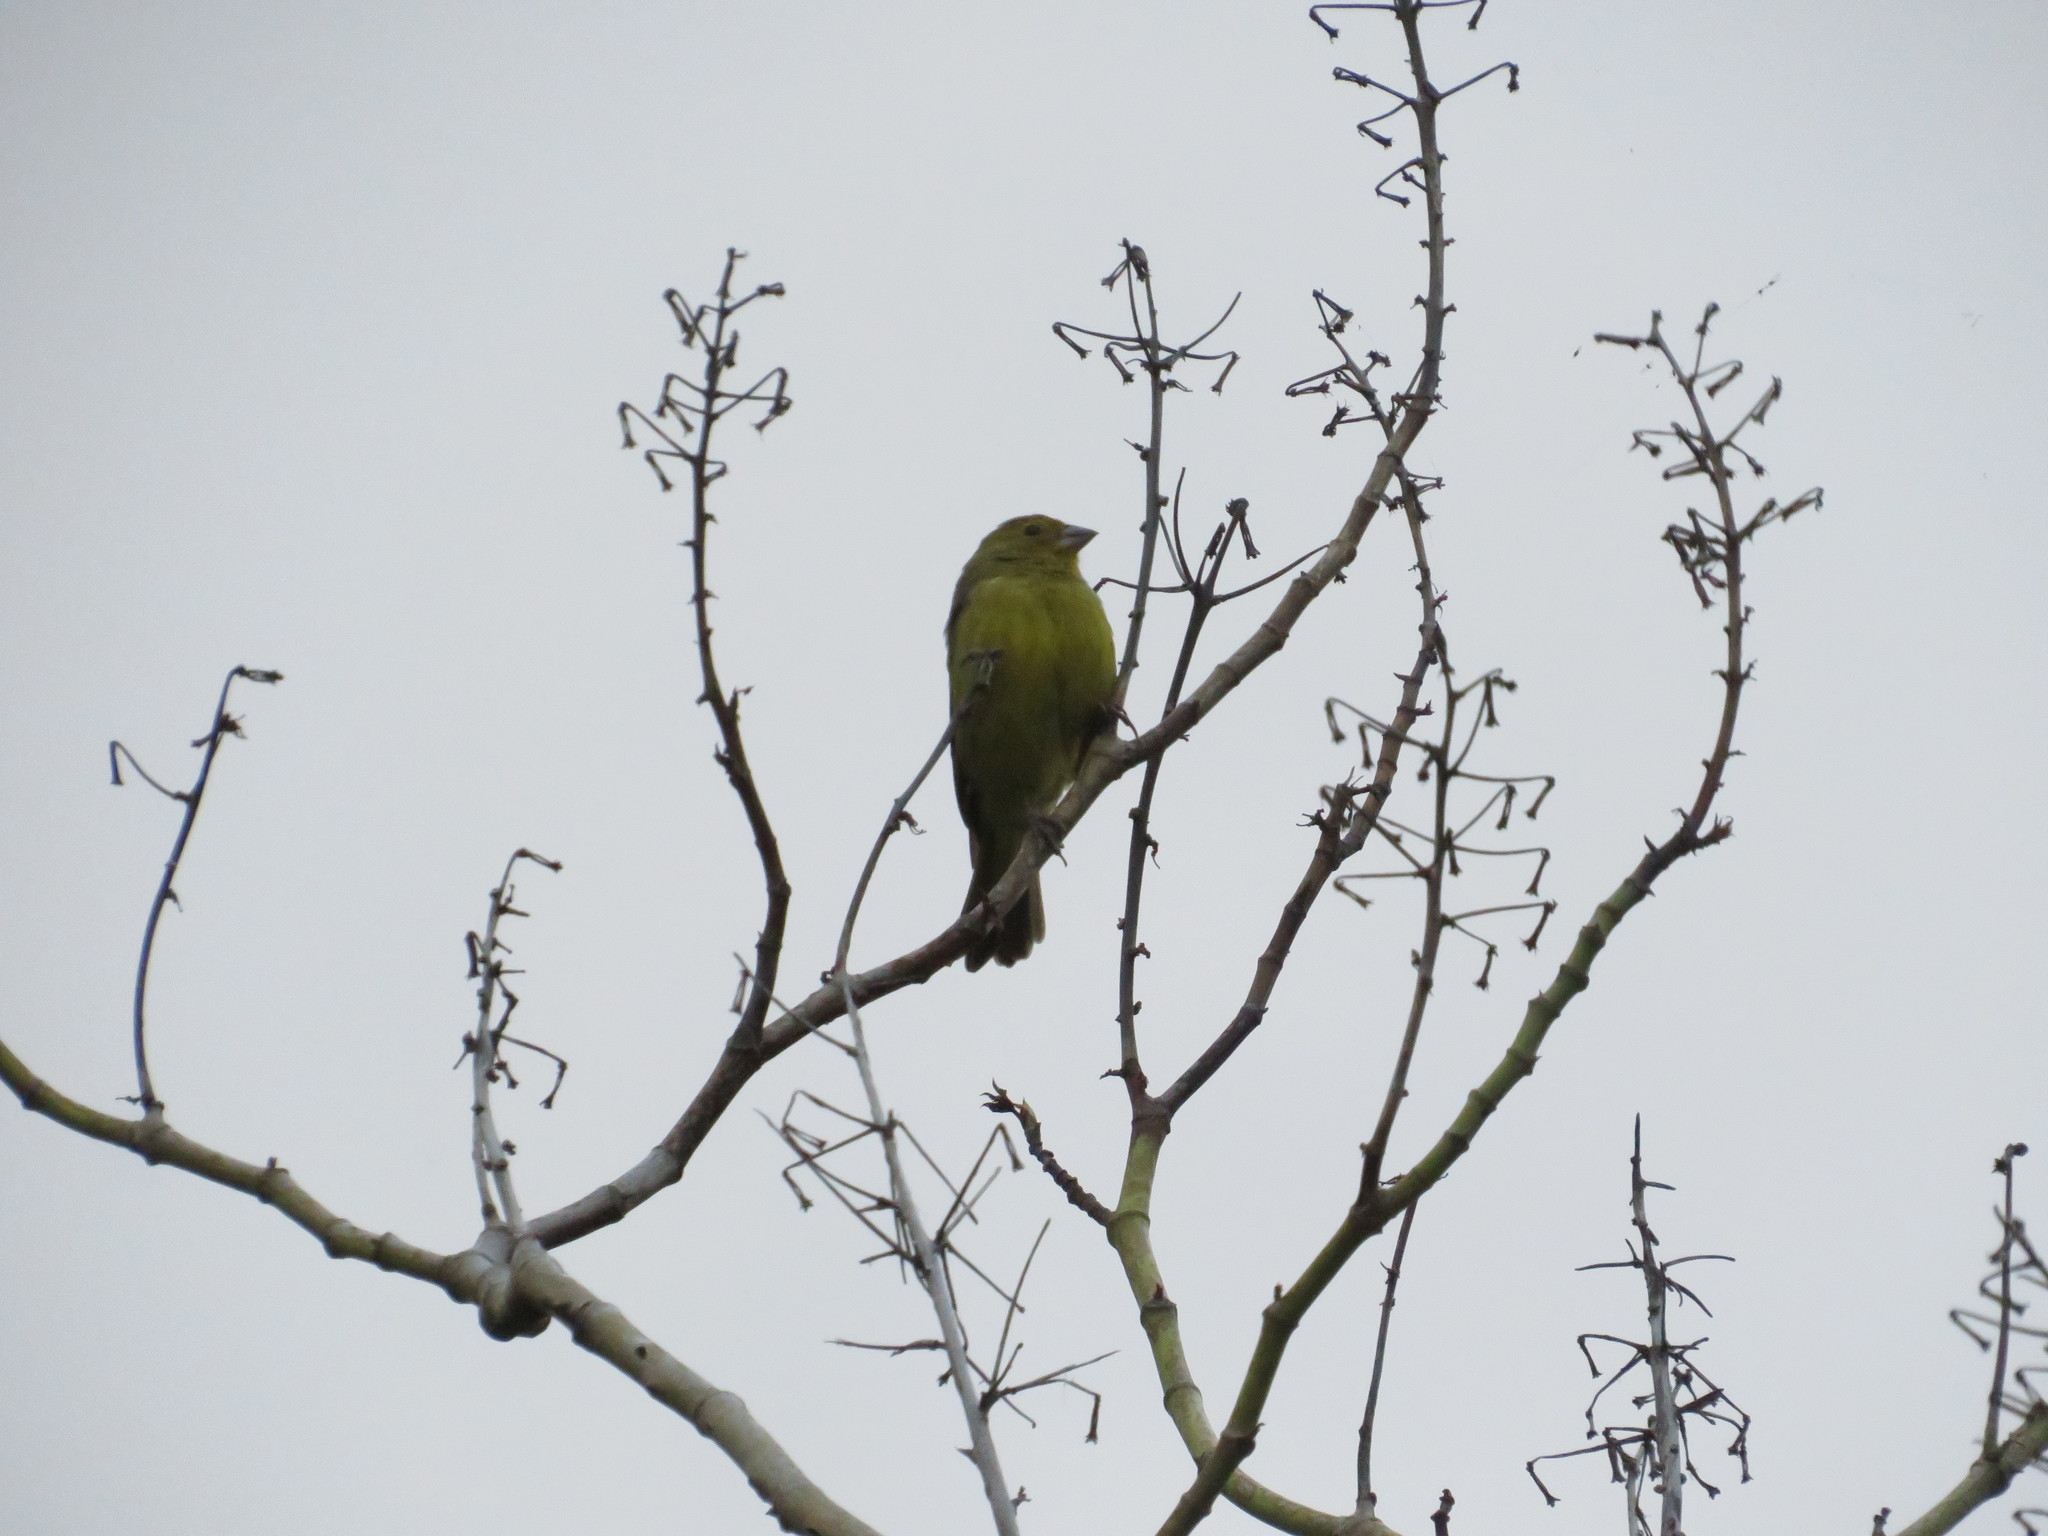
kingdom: Animalia
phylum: Chordata
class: Aves
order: Passeriformes
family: Thraupidae
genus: Sicalis
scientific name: Sicalis flaveola
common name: Saffron finch
